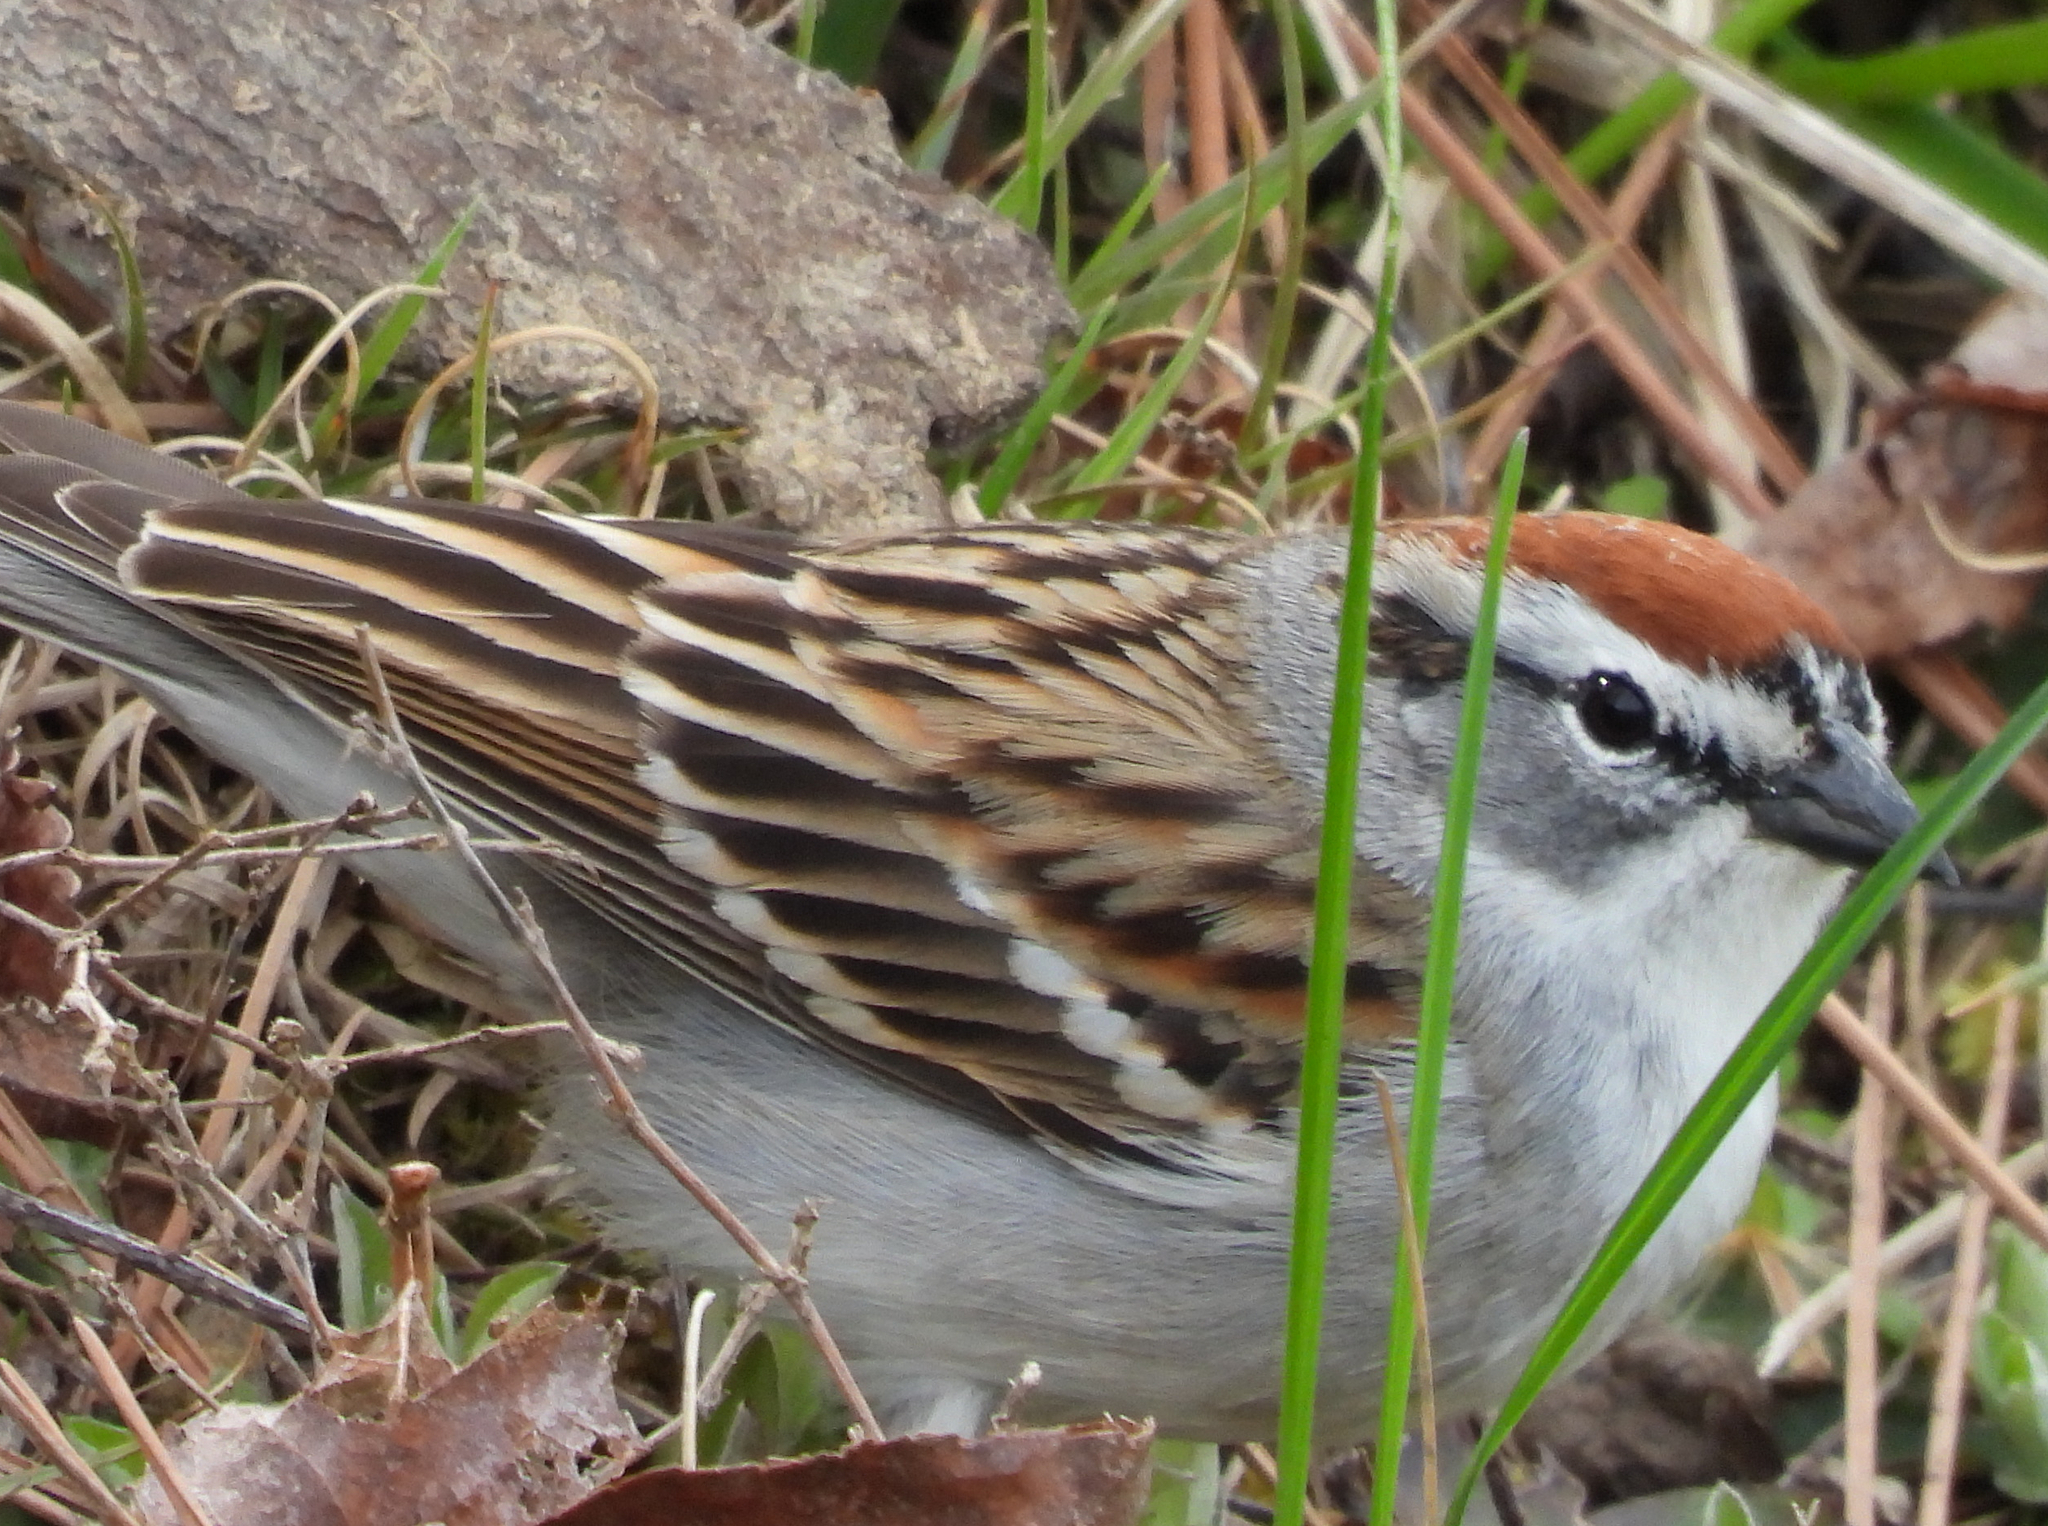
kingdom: Animalia
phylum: Chordata
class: Aves
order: Passeriformes
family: Passerellidae
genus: Spizella
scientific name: Spizella passerina
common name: Chipping sparrow
